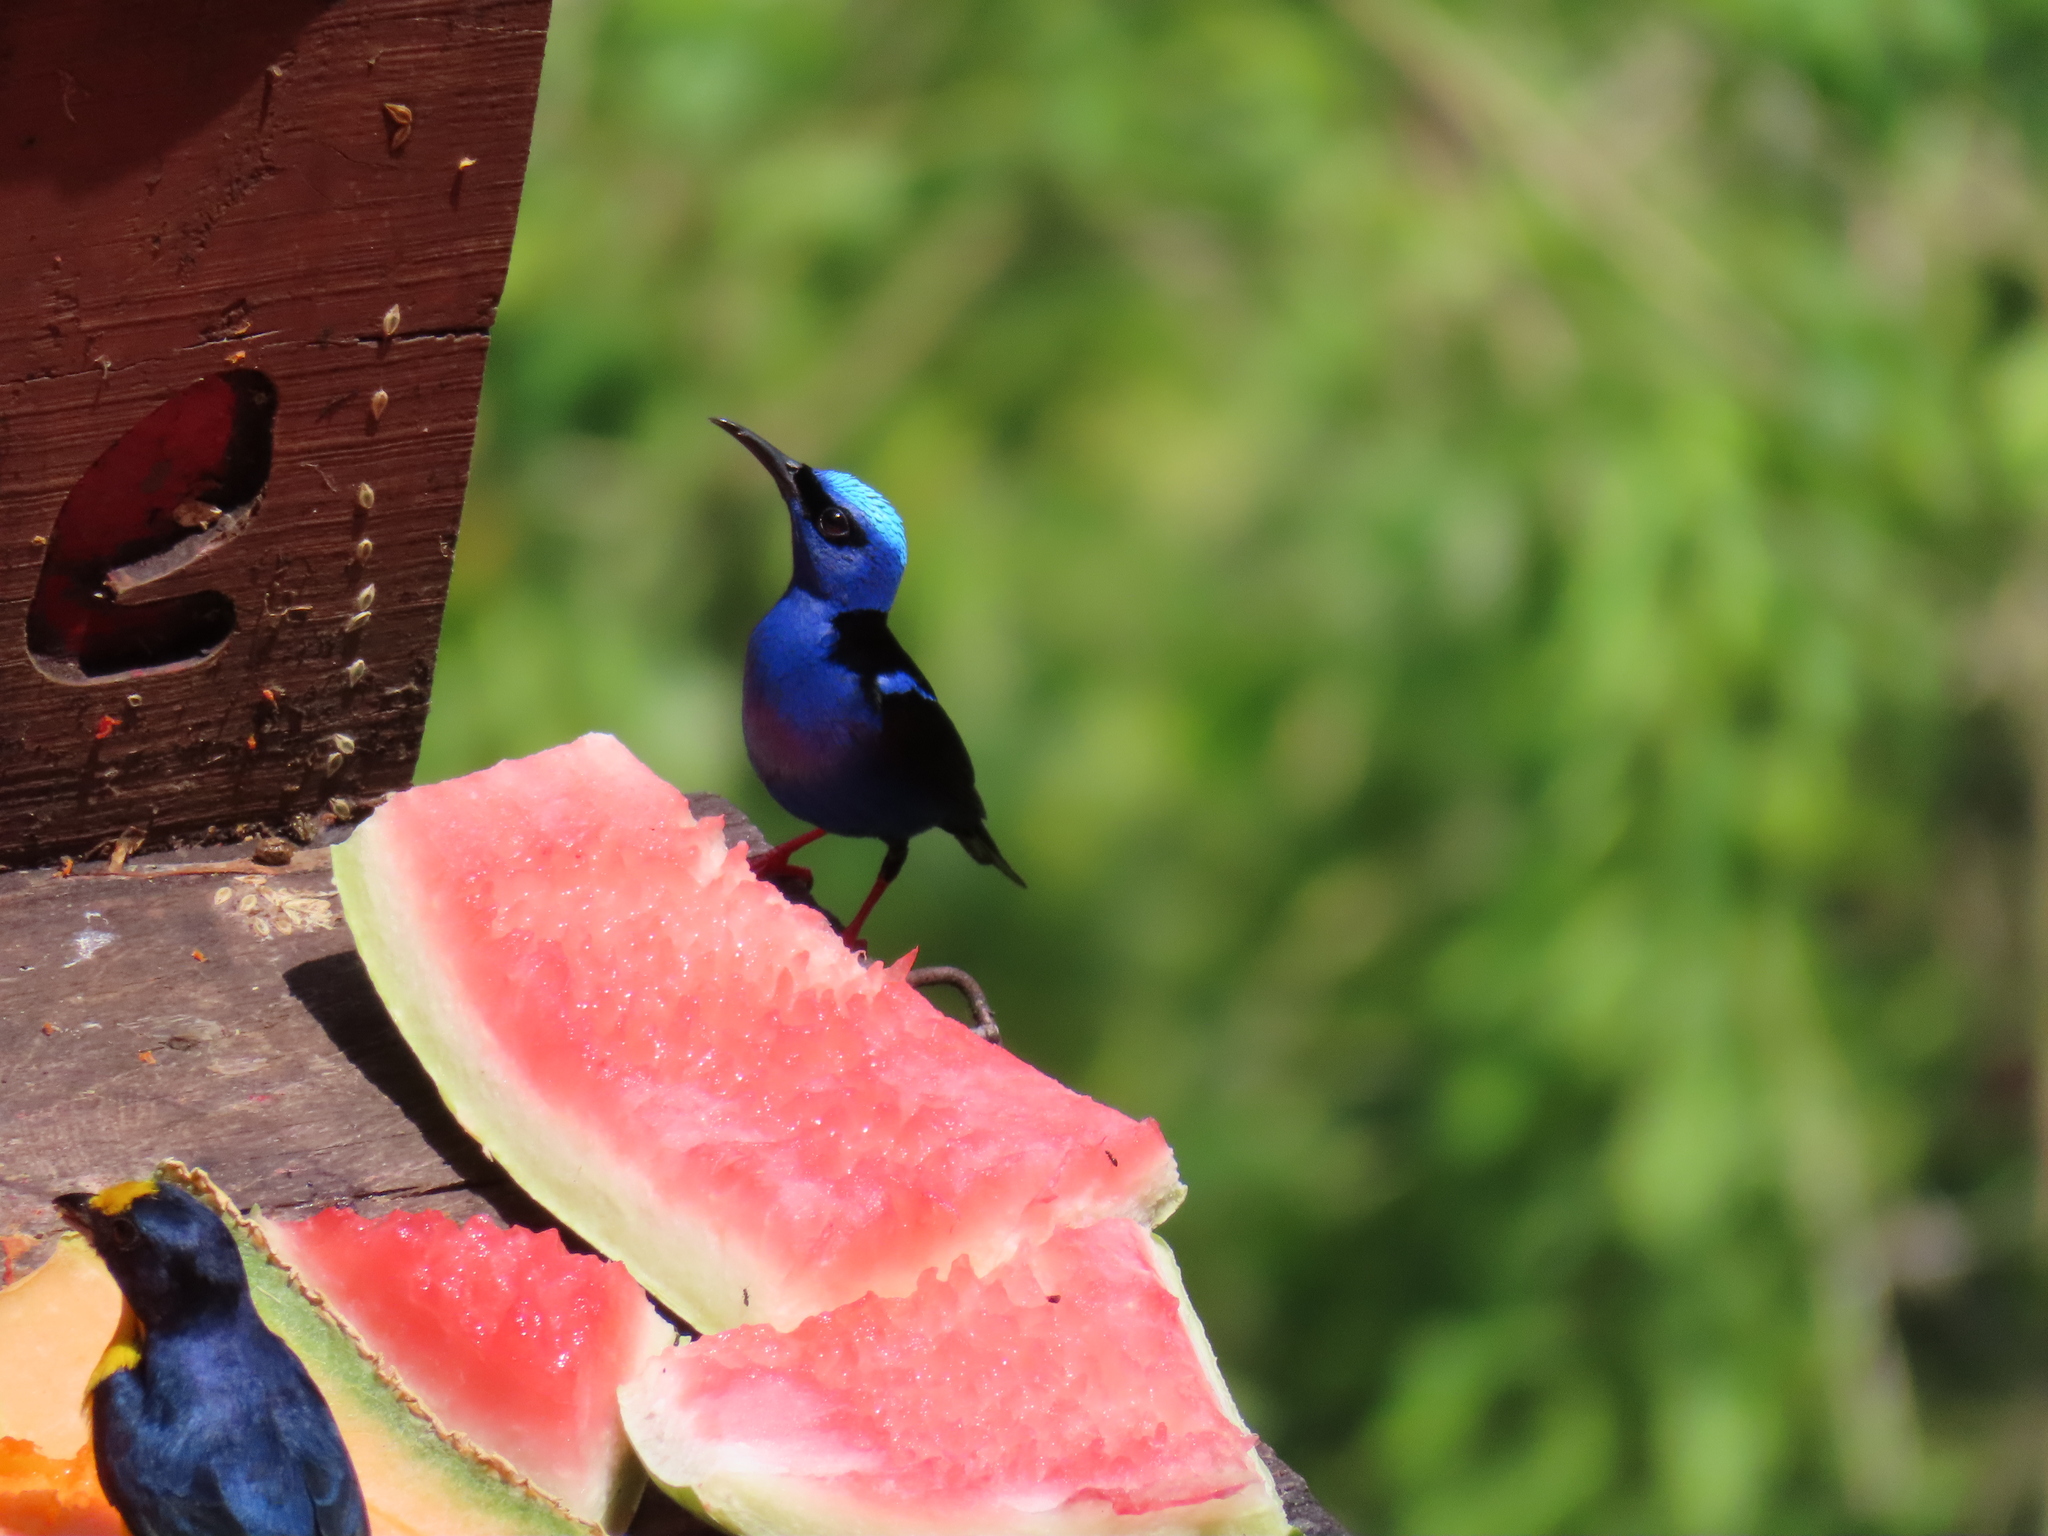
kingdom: Animalia
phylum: Chordata
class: Aves
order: Passeriformes
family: Thraupidae
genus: Cyanerpes
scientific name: Cyanerpes cyaneus
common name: Red-legged honeycreeper
